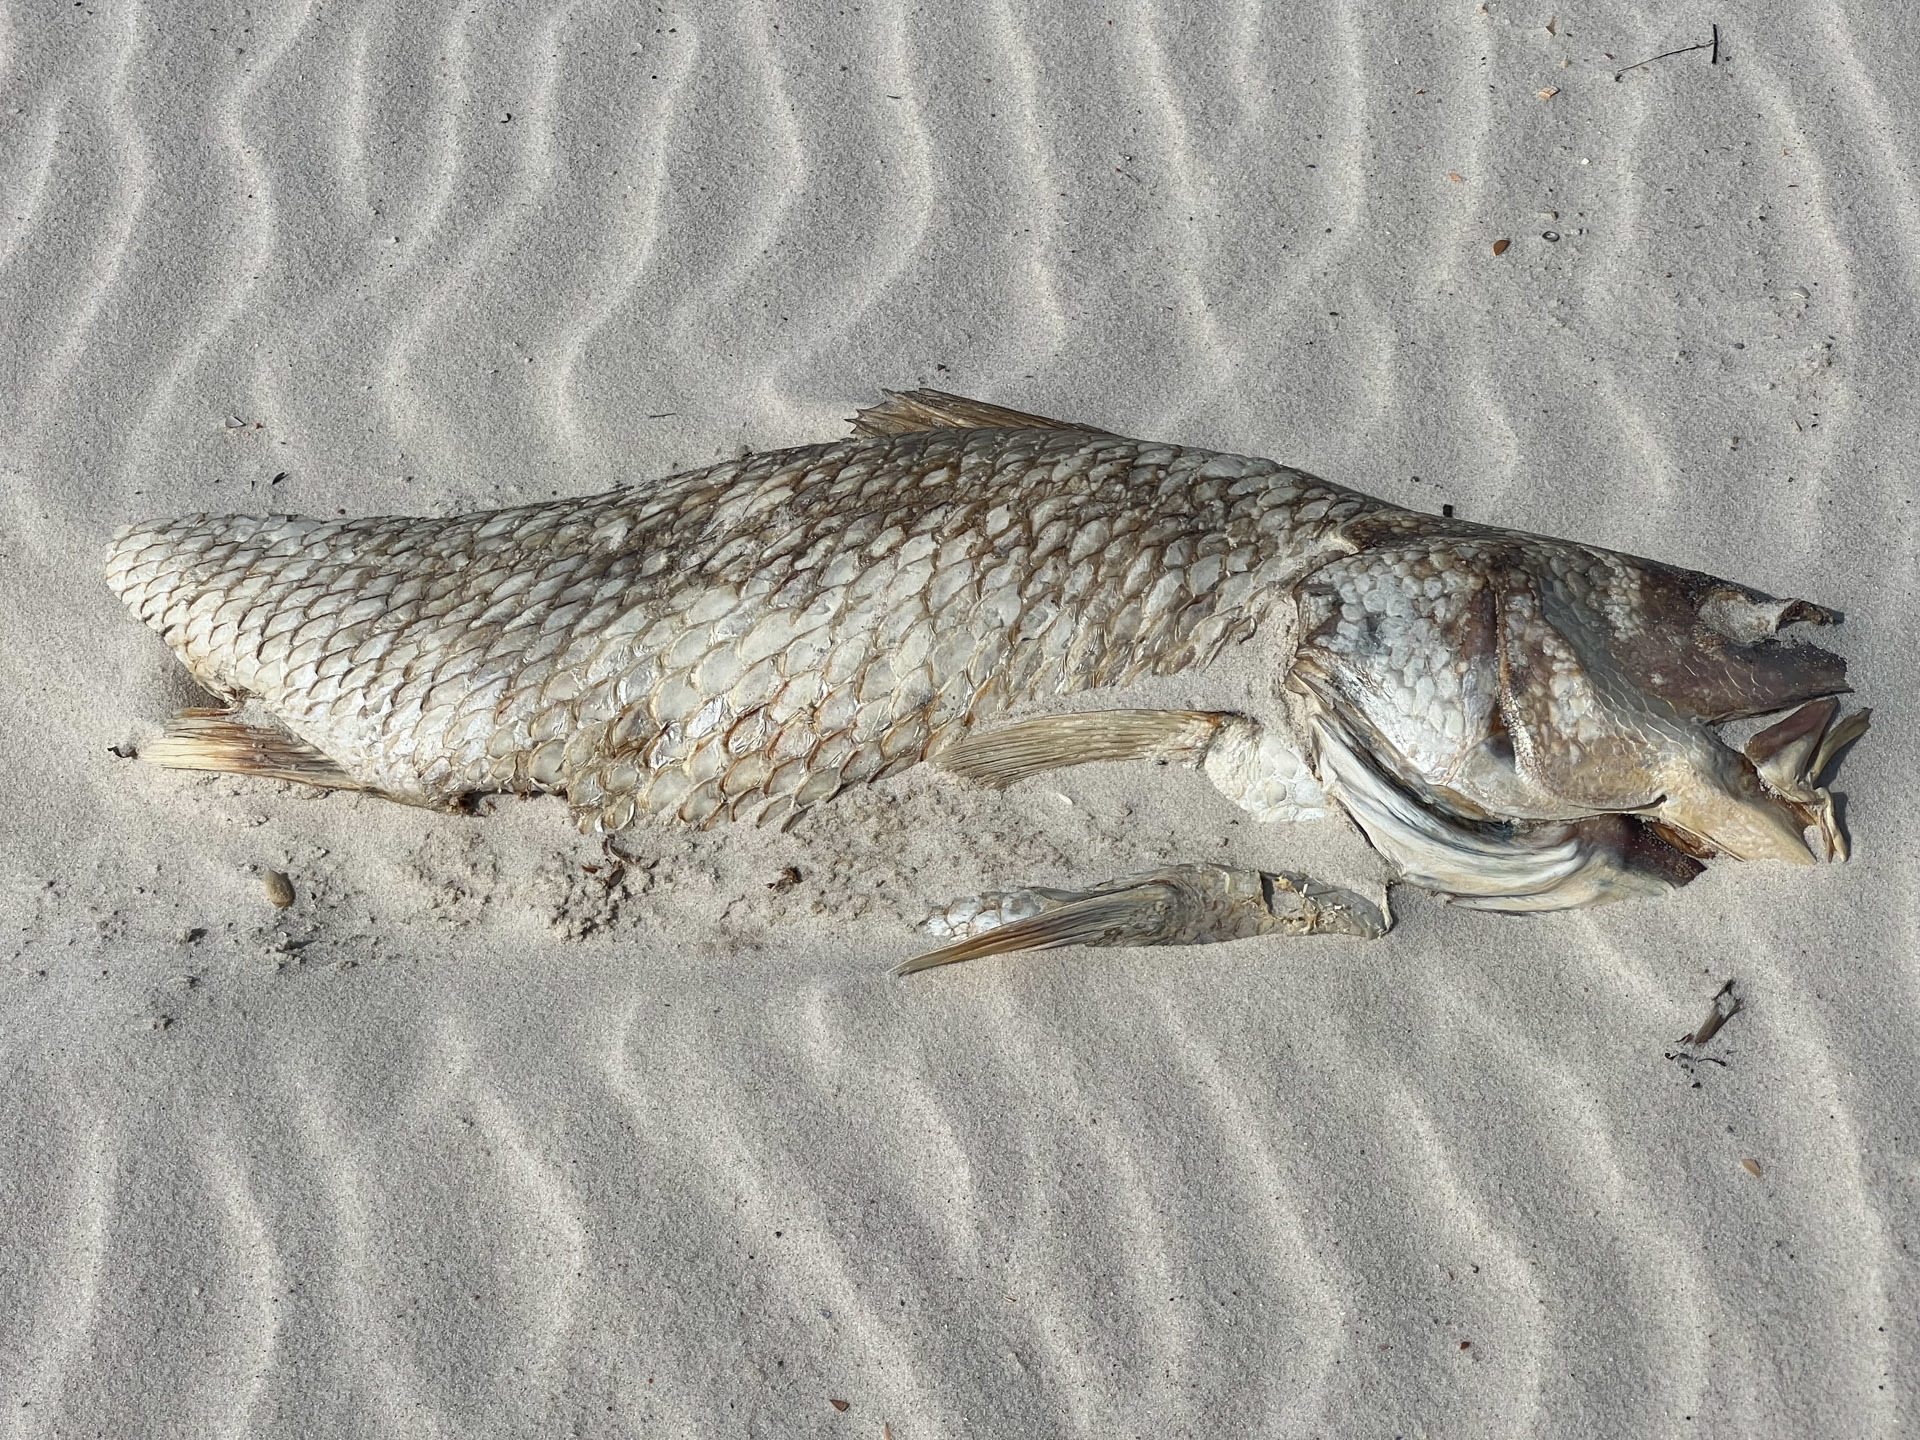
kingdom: Animalia
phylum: Chordata
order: Perciformes
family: Sciaenidae
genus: Sciaenops
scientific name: Sciaenops ocellatus
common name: Red drum
